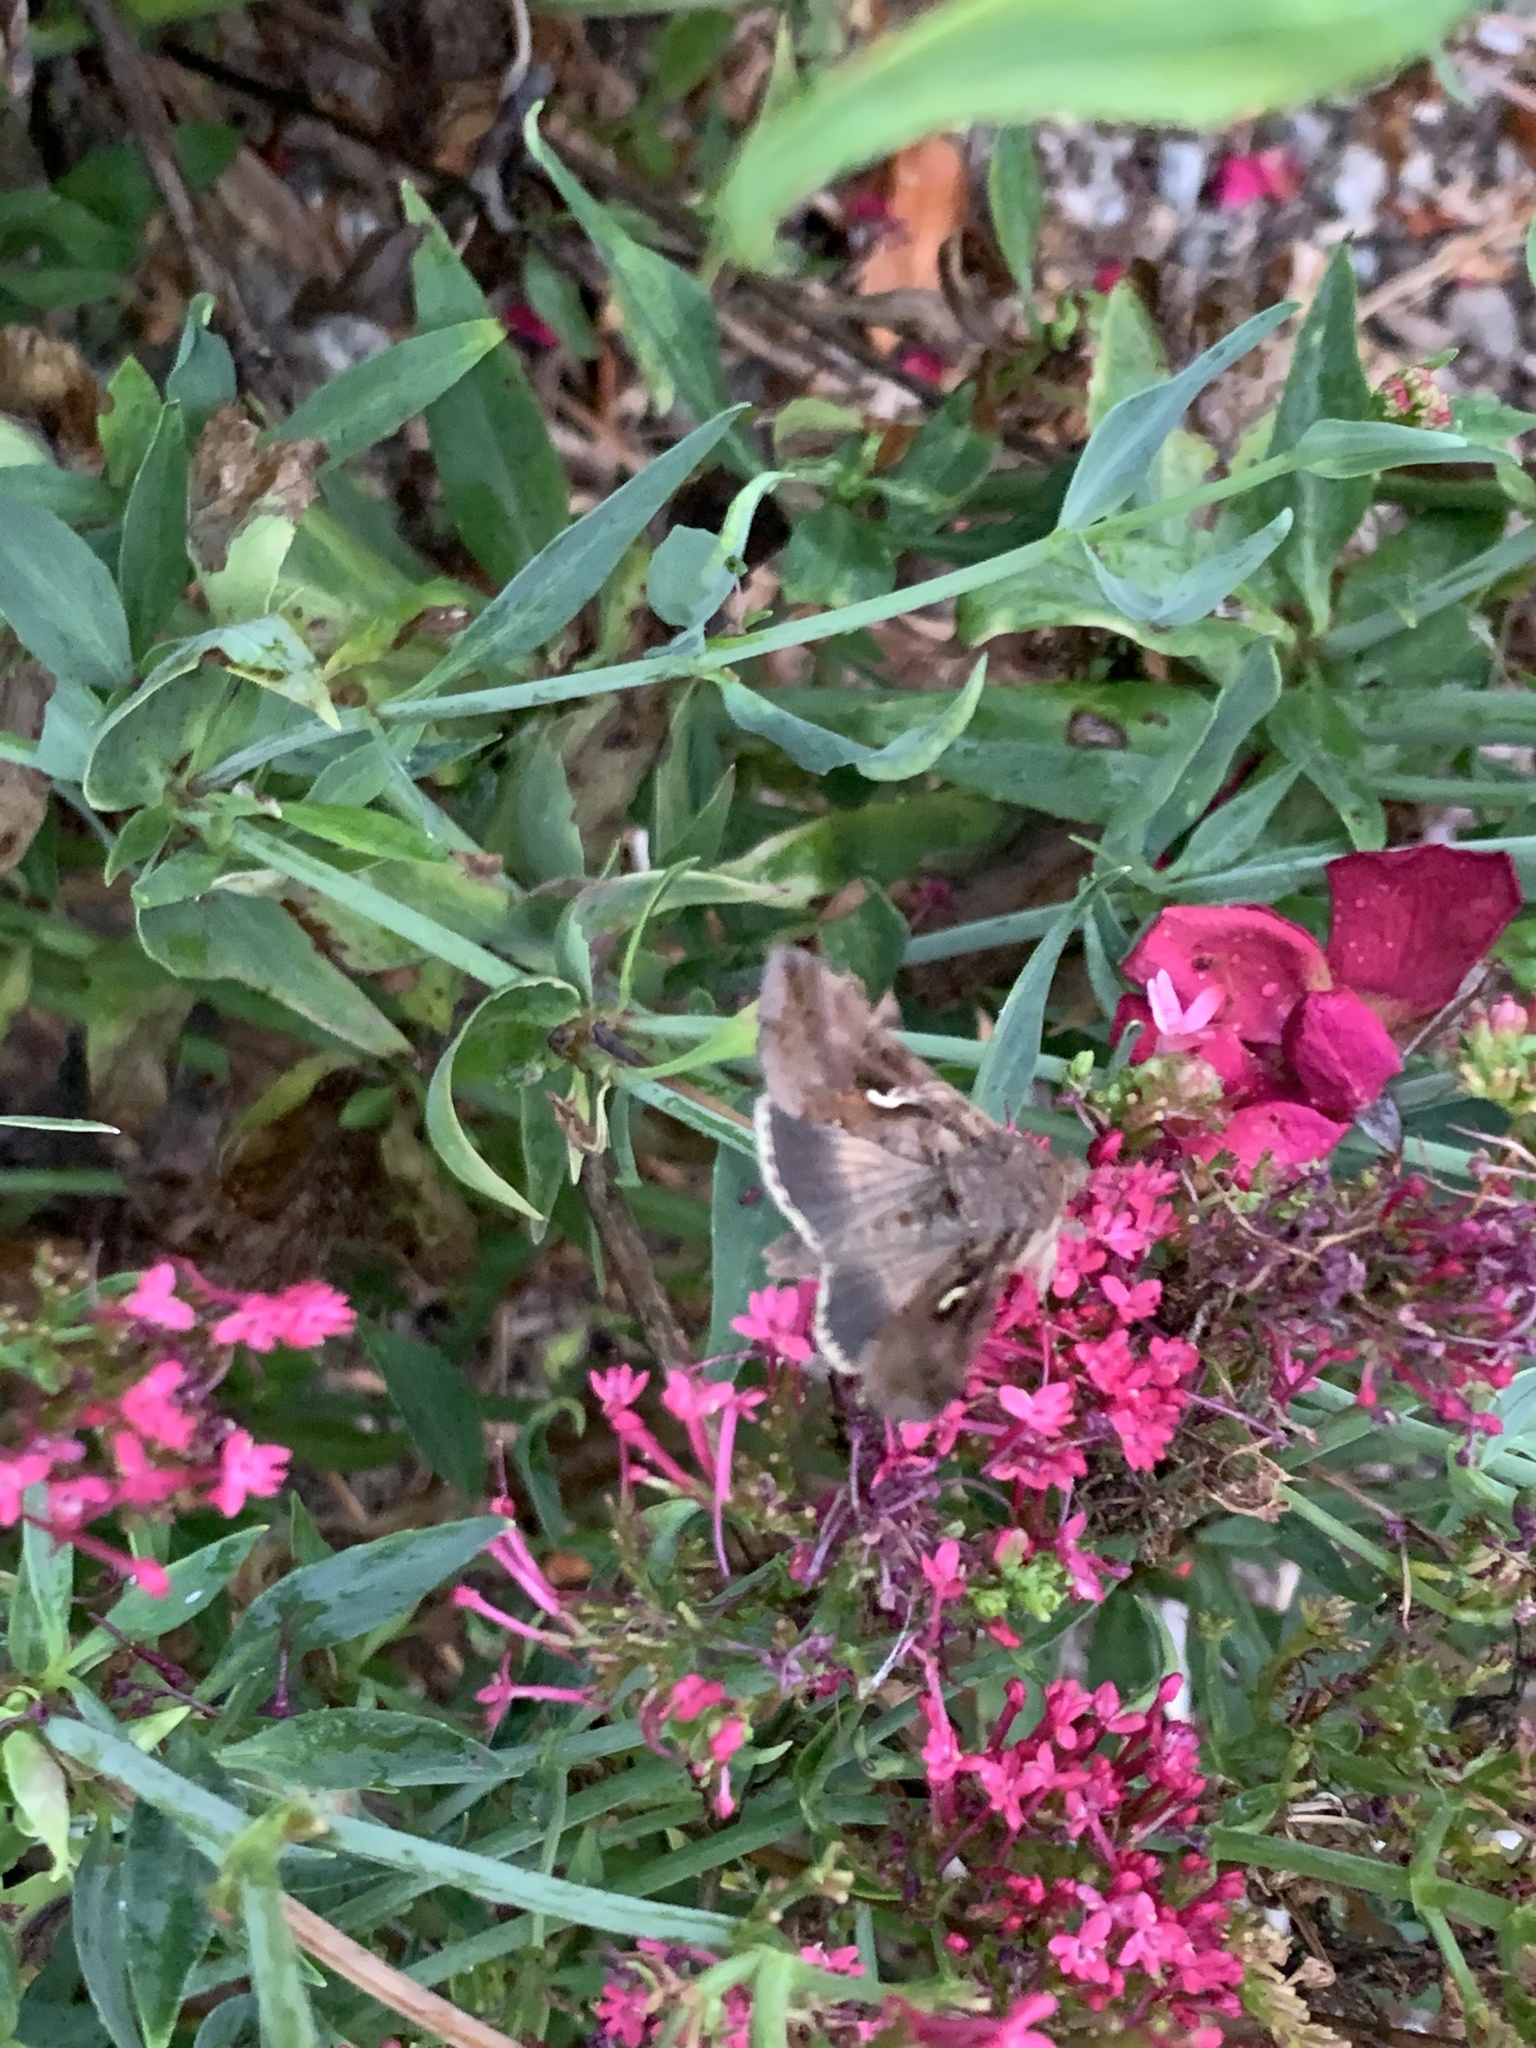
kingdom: Animalia
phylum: Arthropoda
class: Insecta
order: Lepidoptera
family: Noctuidae
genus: Autographa
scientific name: Autographa gamma
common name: Silver y
